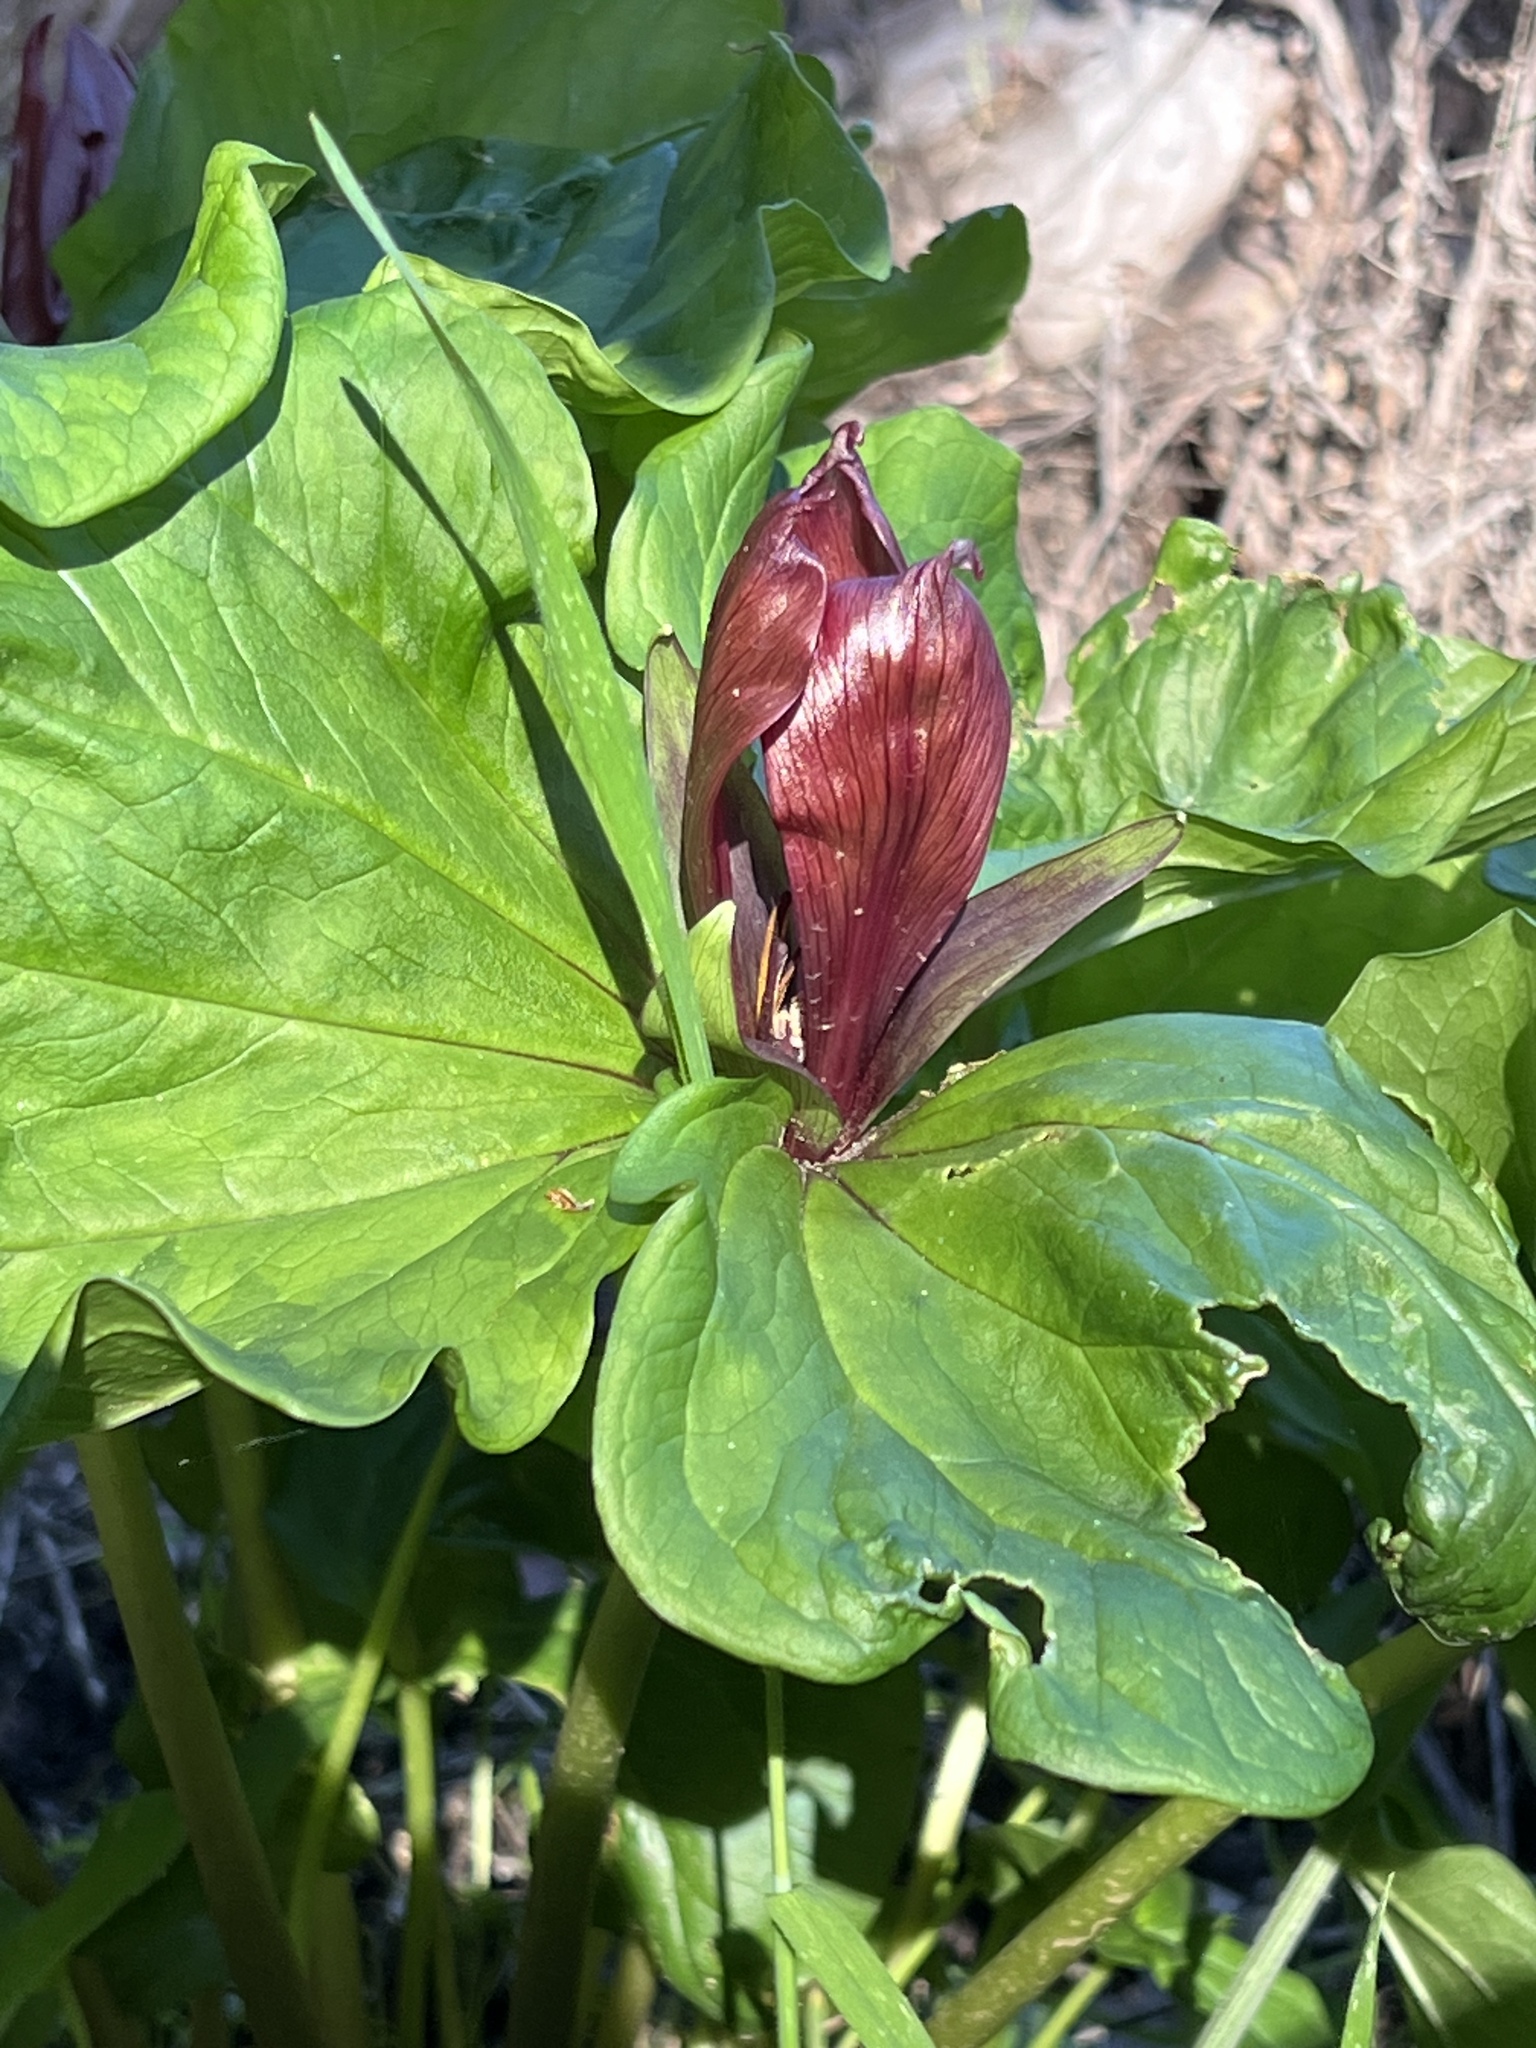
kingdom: Plantae
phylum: Tracheophyta
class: Liliopsida
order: Liliales
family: Melanthiaceae
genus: Trillium
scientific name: Trillium chloropetalum
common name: Giant trillium
